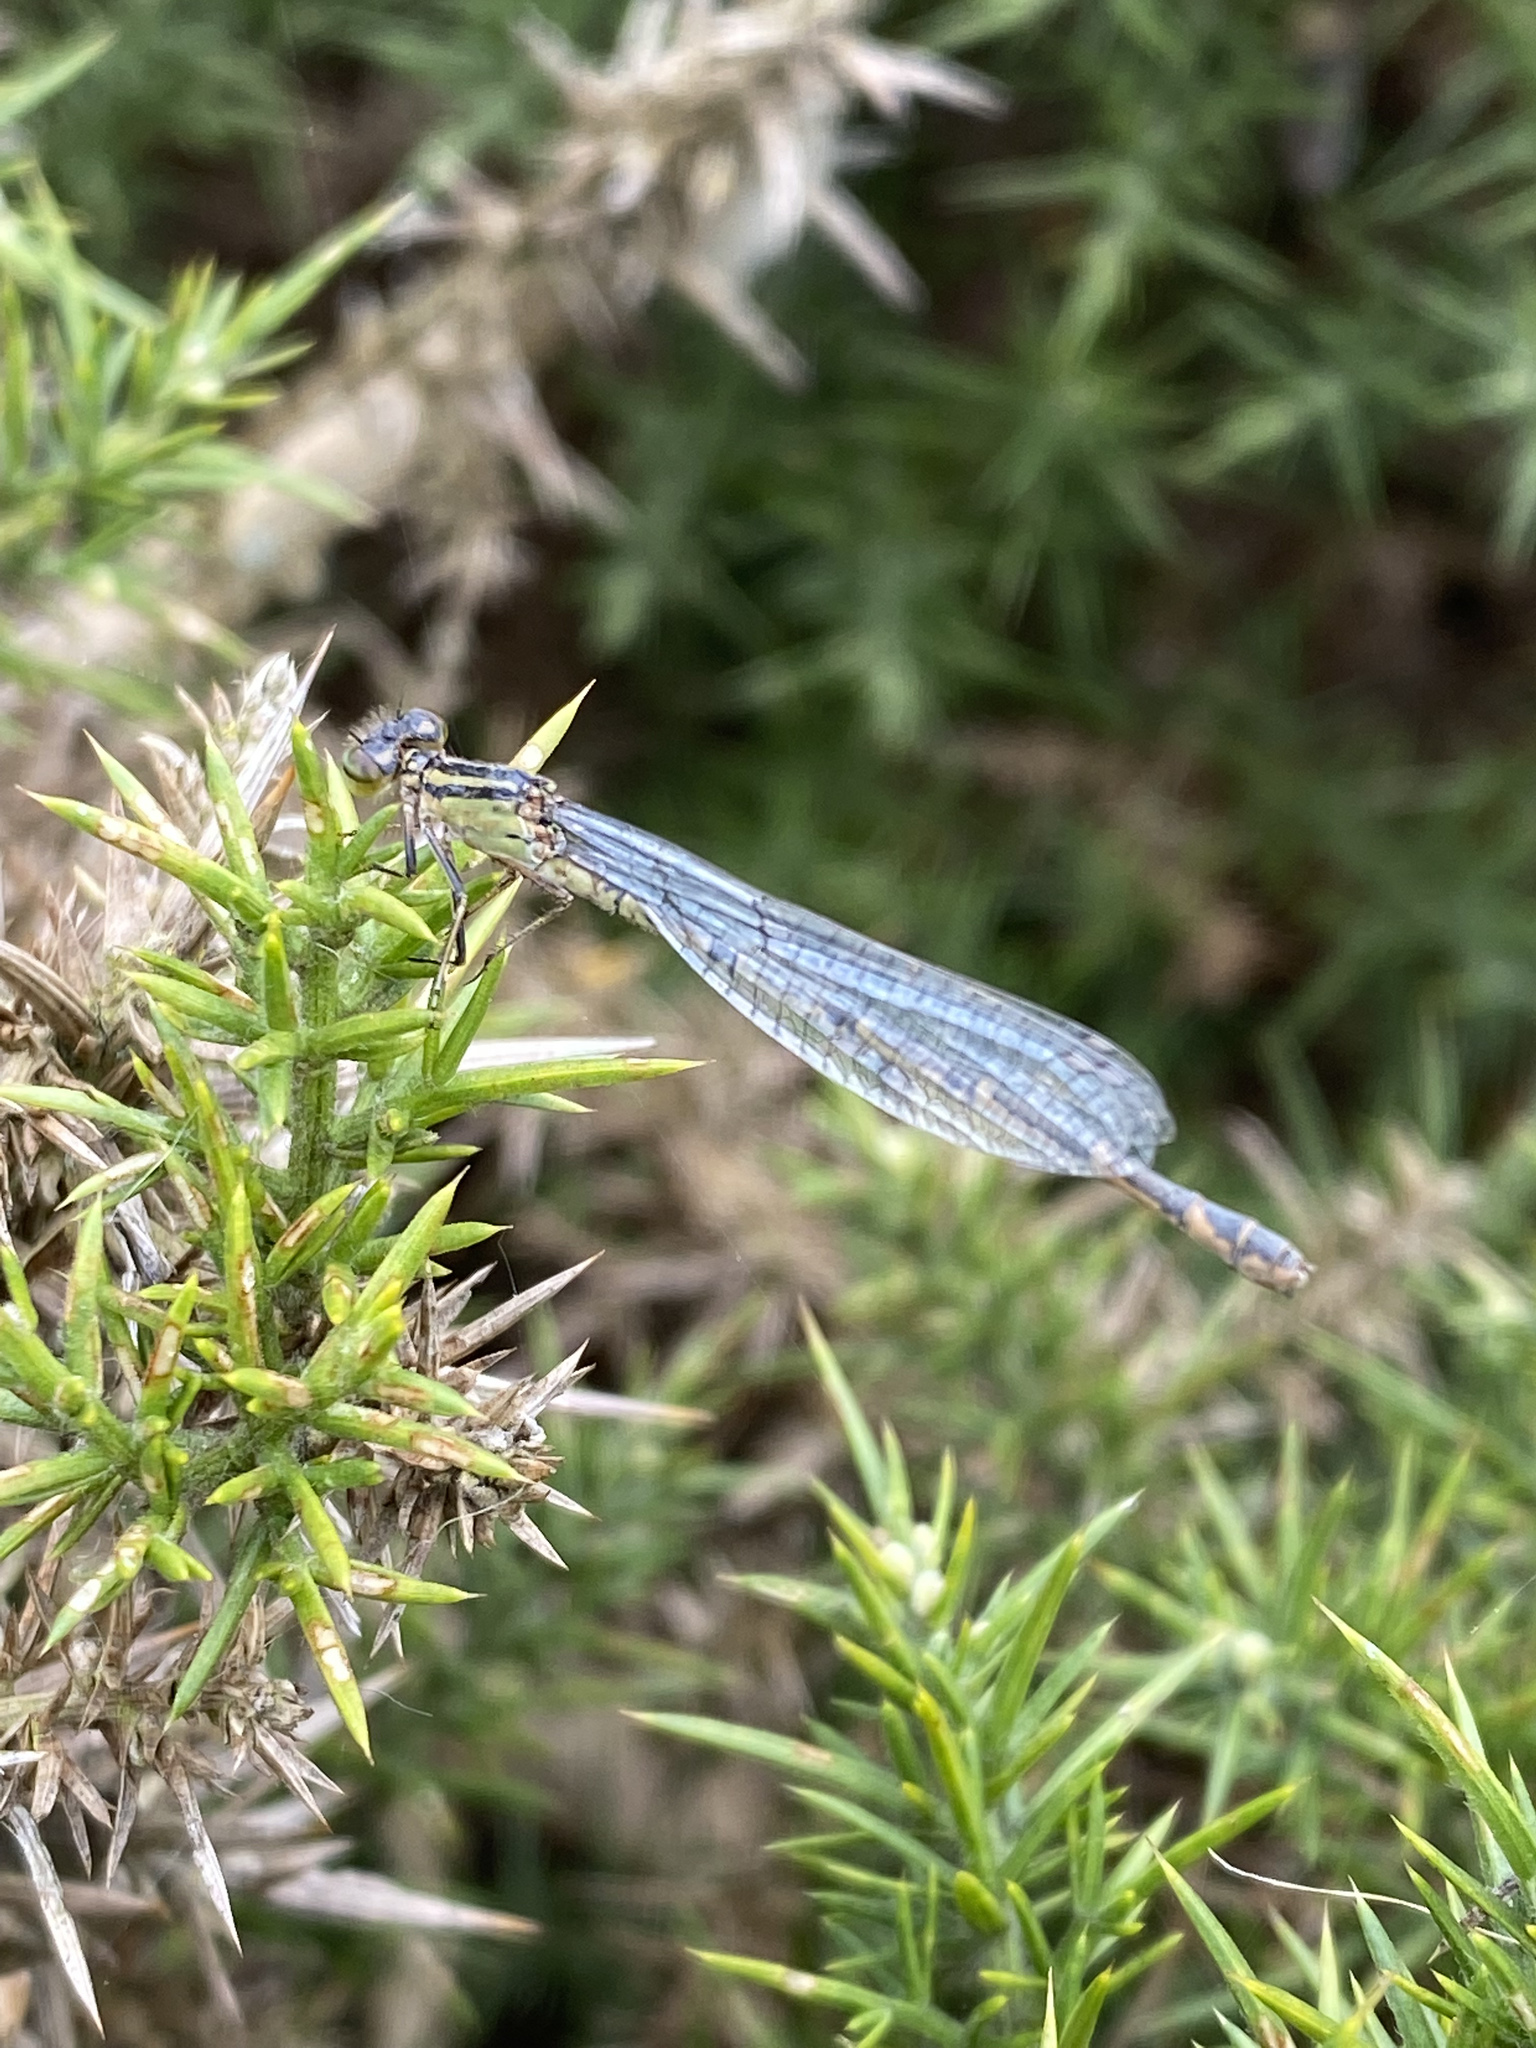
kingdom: Animalia
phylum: Arthropoda
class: Insecta
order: Odonata
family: Coenagrionidae
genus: Enallagma
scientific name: Enallagma cyathigerum
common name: Common blue damselfly
